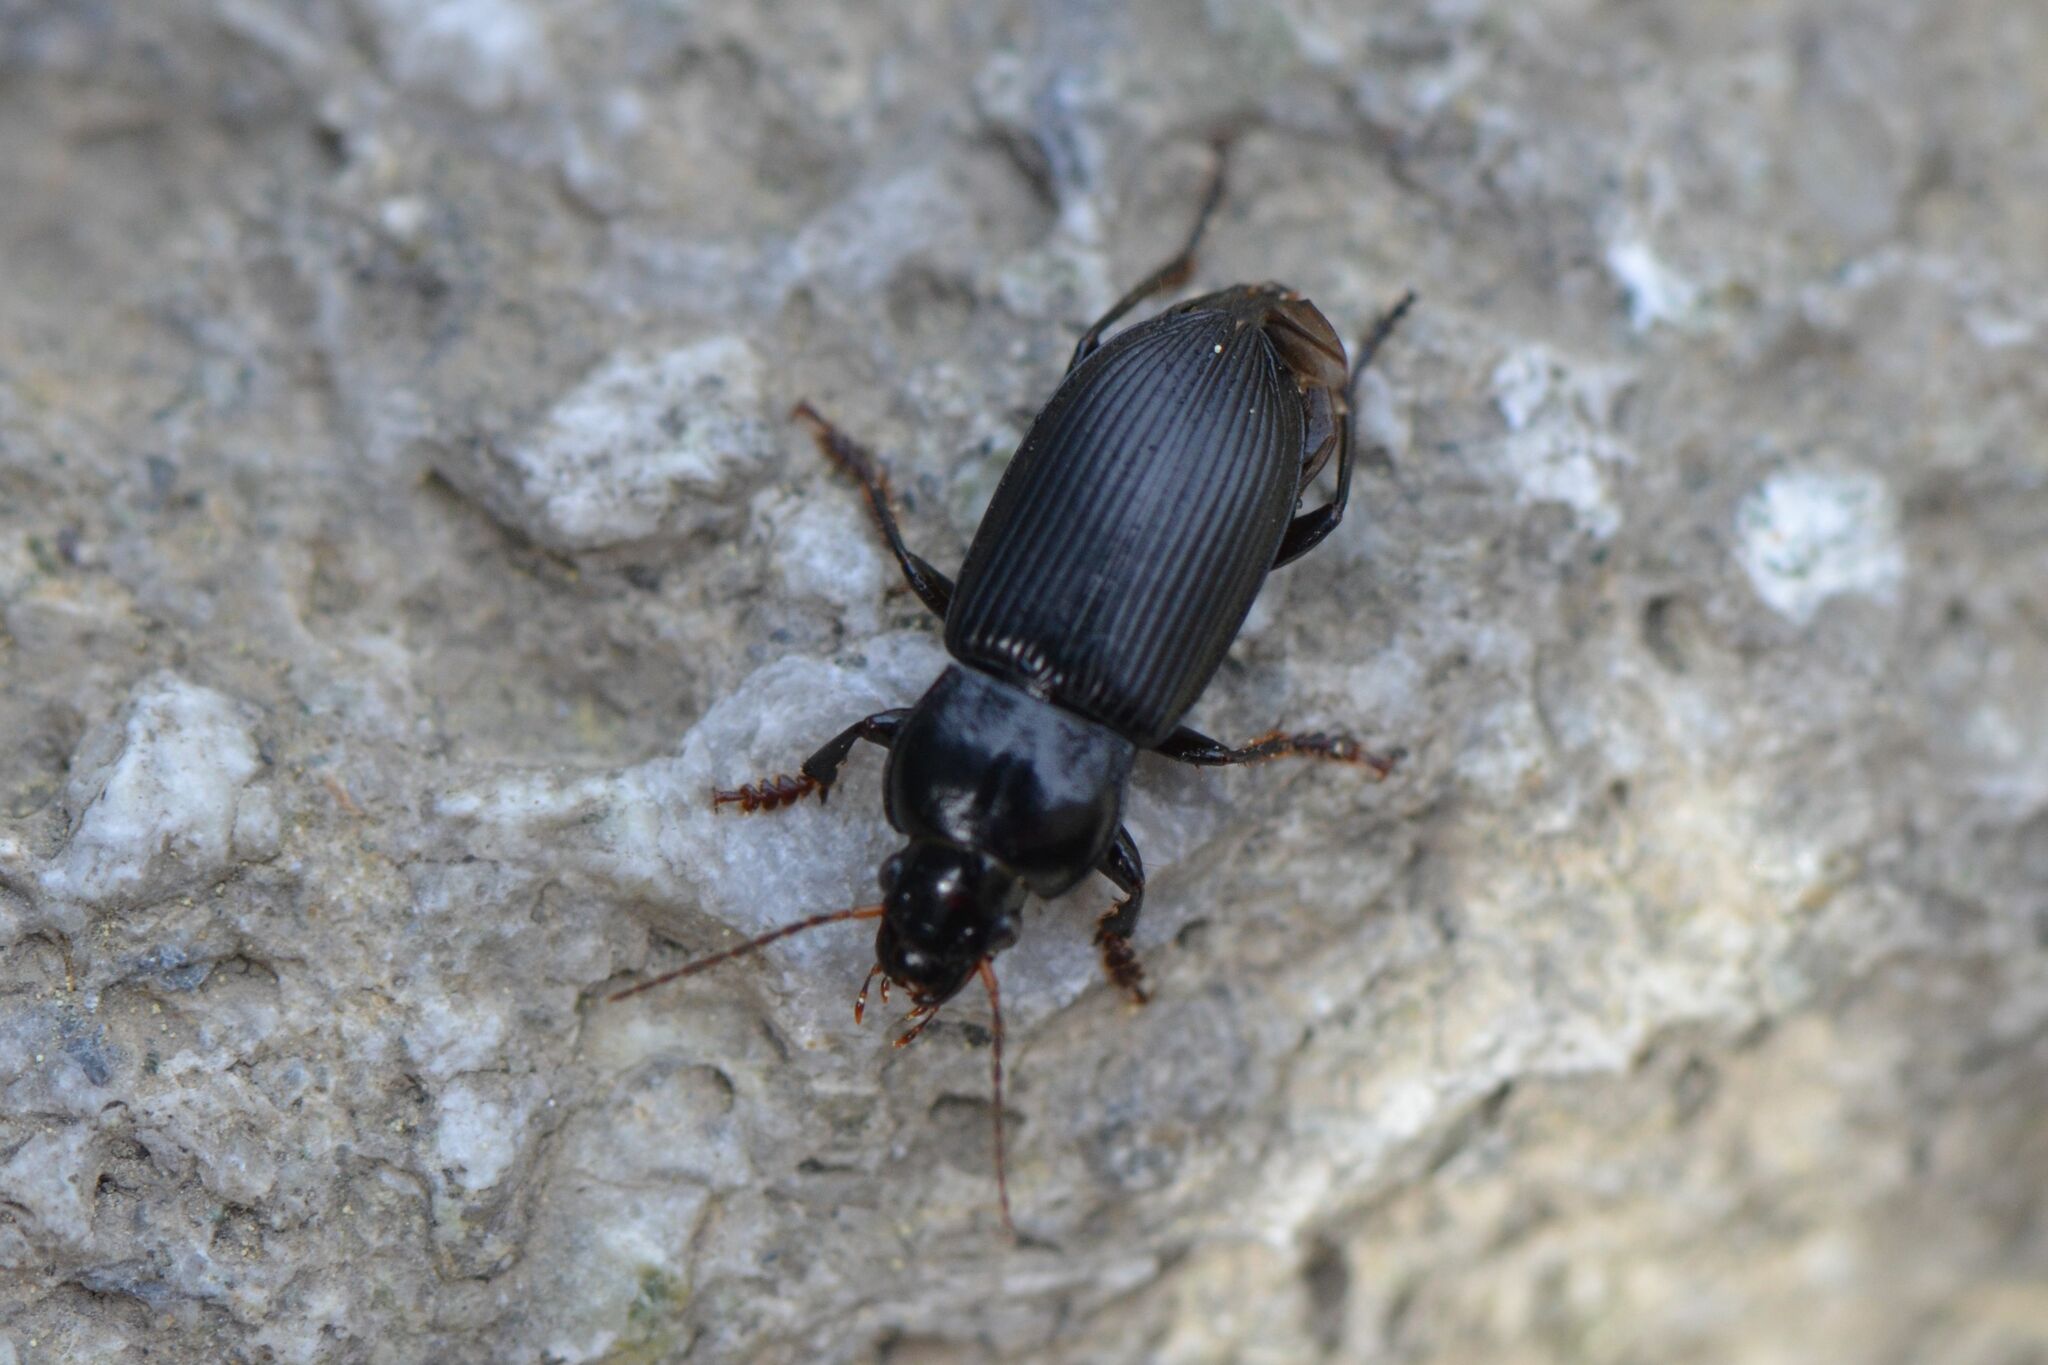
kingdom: Animalia
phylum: Arthropoda
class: Insecta
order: Coleoptera
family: Carabidae
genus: Anisodactylus
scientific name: Anisodactylus binotatus
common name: Two-marked harp ground beetle
